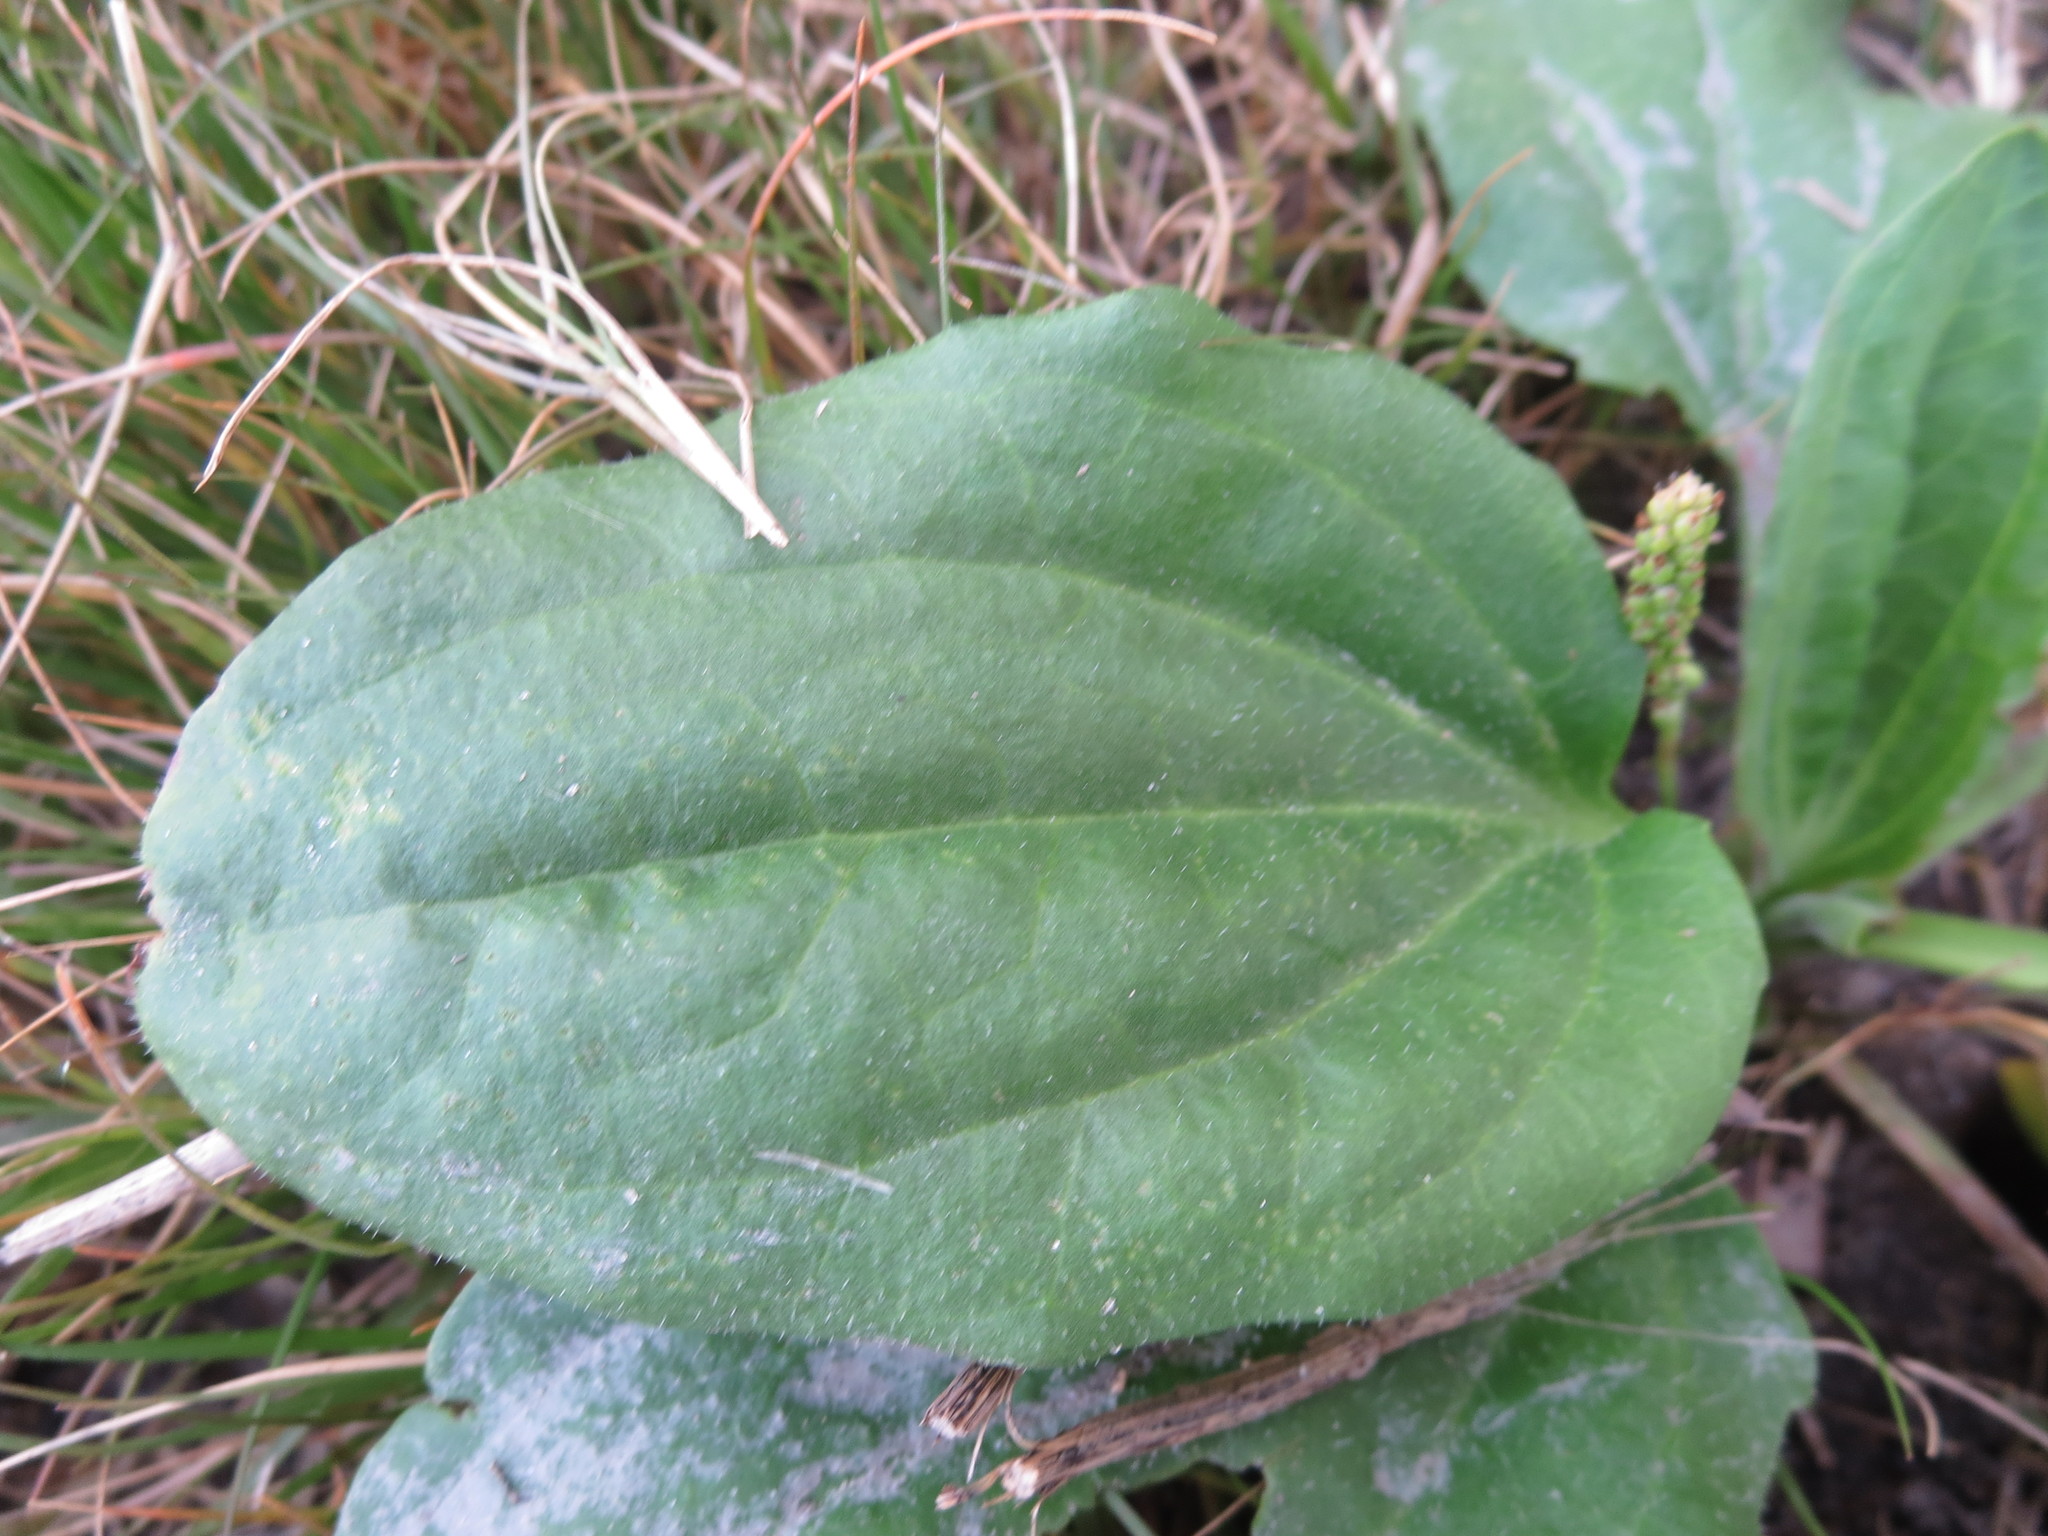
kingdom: Plantae
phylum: Tracheophyta
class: Magnoliopsida
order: Lamiales
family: Plantaginaceae
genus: Plantago
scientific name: Plantago major
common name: Common plantain
